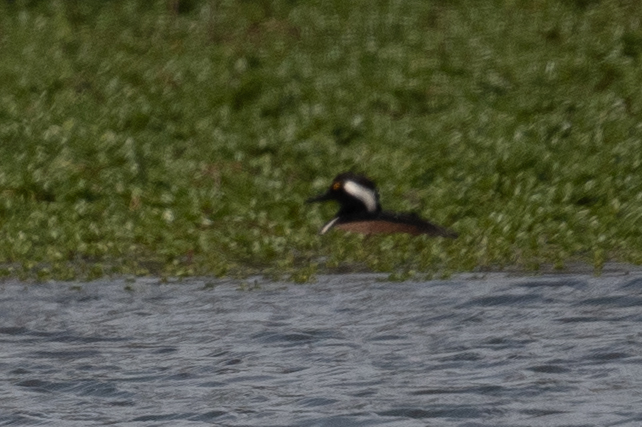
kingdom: Animalia
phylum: Chordata
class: Aves
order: Anseriformes
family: Anatidae
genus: Lophodytes
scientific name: Lophodytes cucullatus
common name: Hooded merganser
